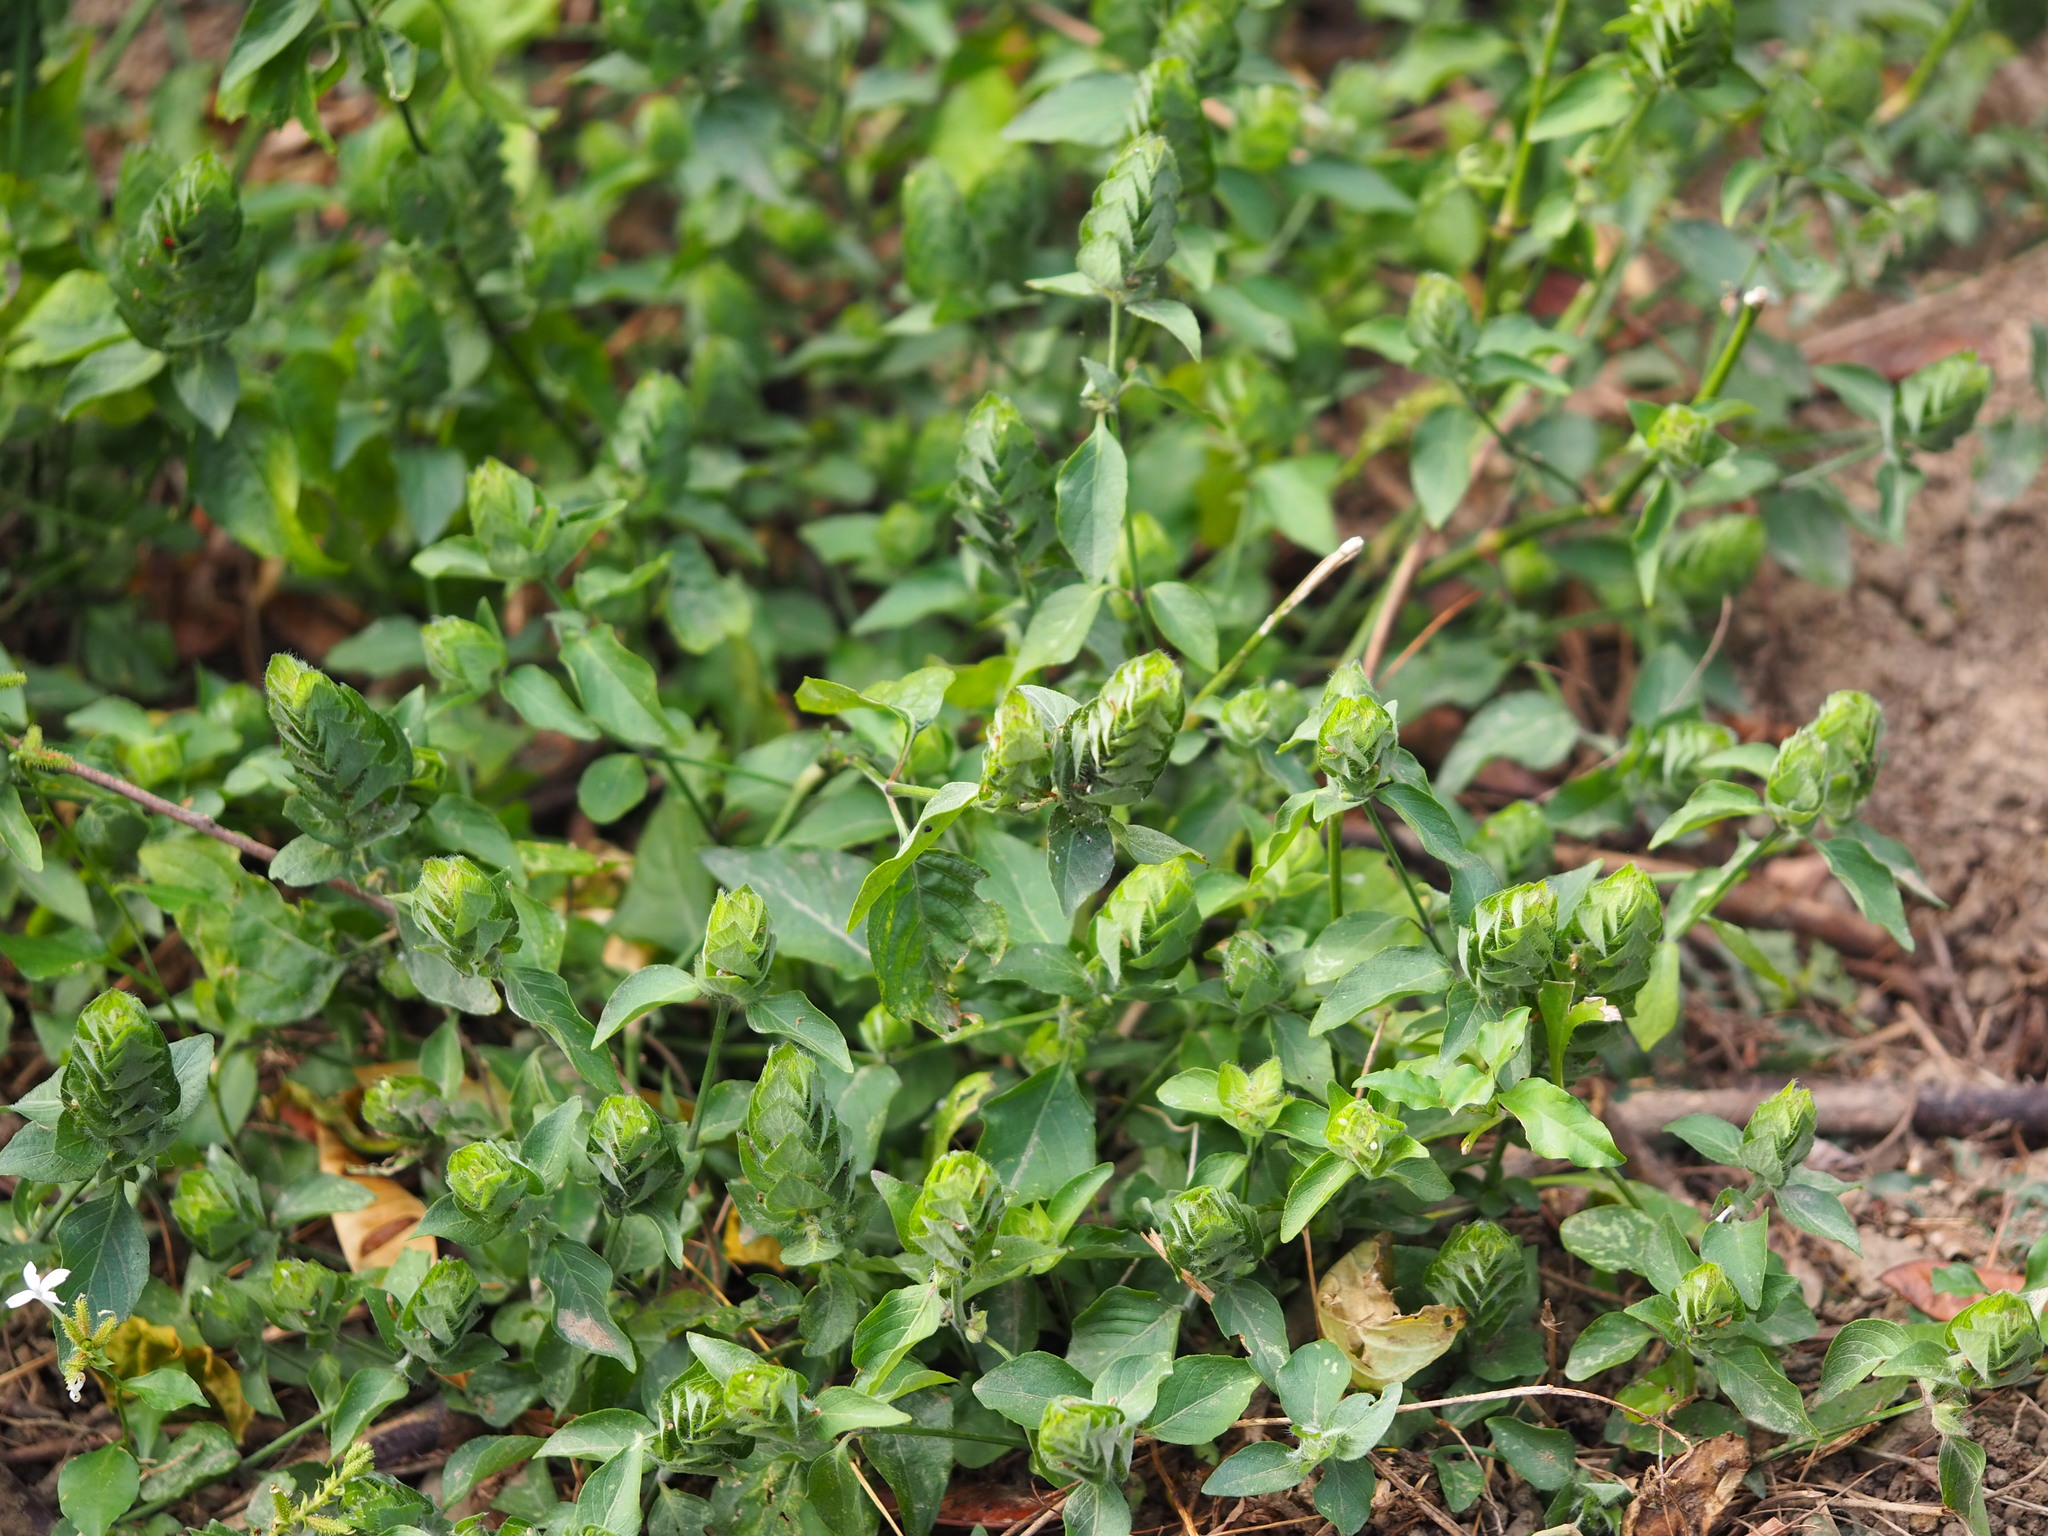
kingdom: Plantae
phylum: Tracheophyta
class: Magnoliopsida
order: Lamiales
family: Acanthaceae
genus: Ruellia
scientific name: Ruellia blechum
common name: Browne's blechum
